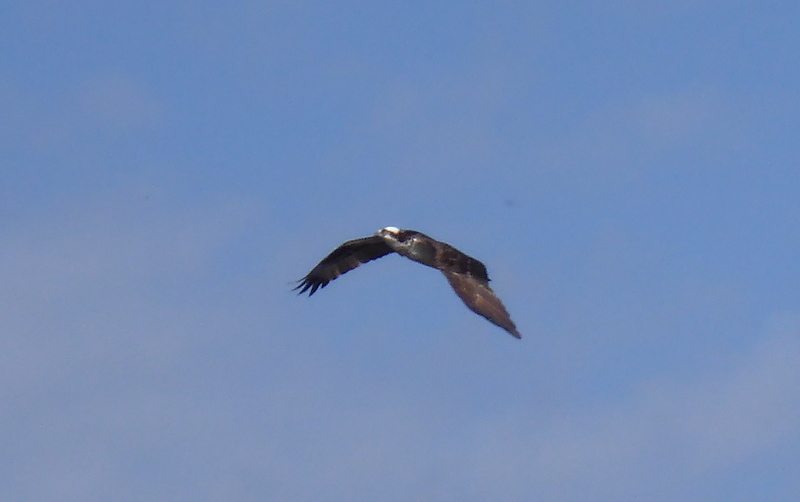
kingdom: Animalia
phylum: Chordata
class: Aves
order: Accipitriformes
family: Pandionidae
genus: Pandion
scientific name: Pandion haliaetus
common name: Osprey
